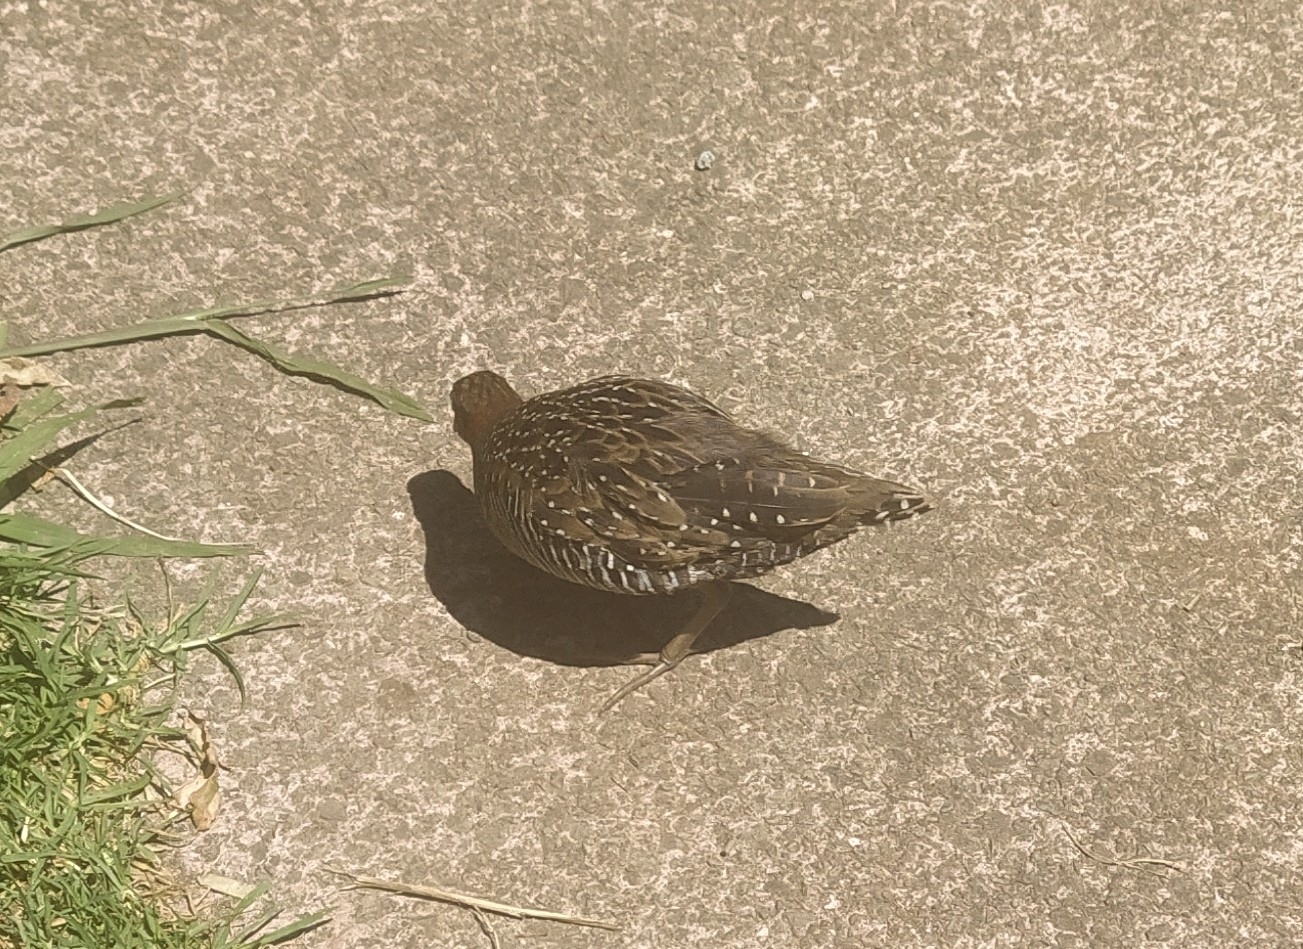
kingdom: Animalia
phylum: Chordata
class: Aves
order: Gruiformes
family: Rallidae
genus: Gallirallus
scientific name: Gallirallus philippensis
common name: Buff-banded rail
